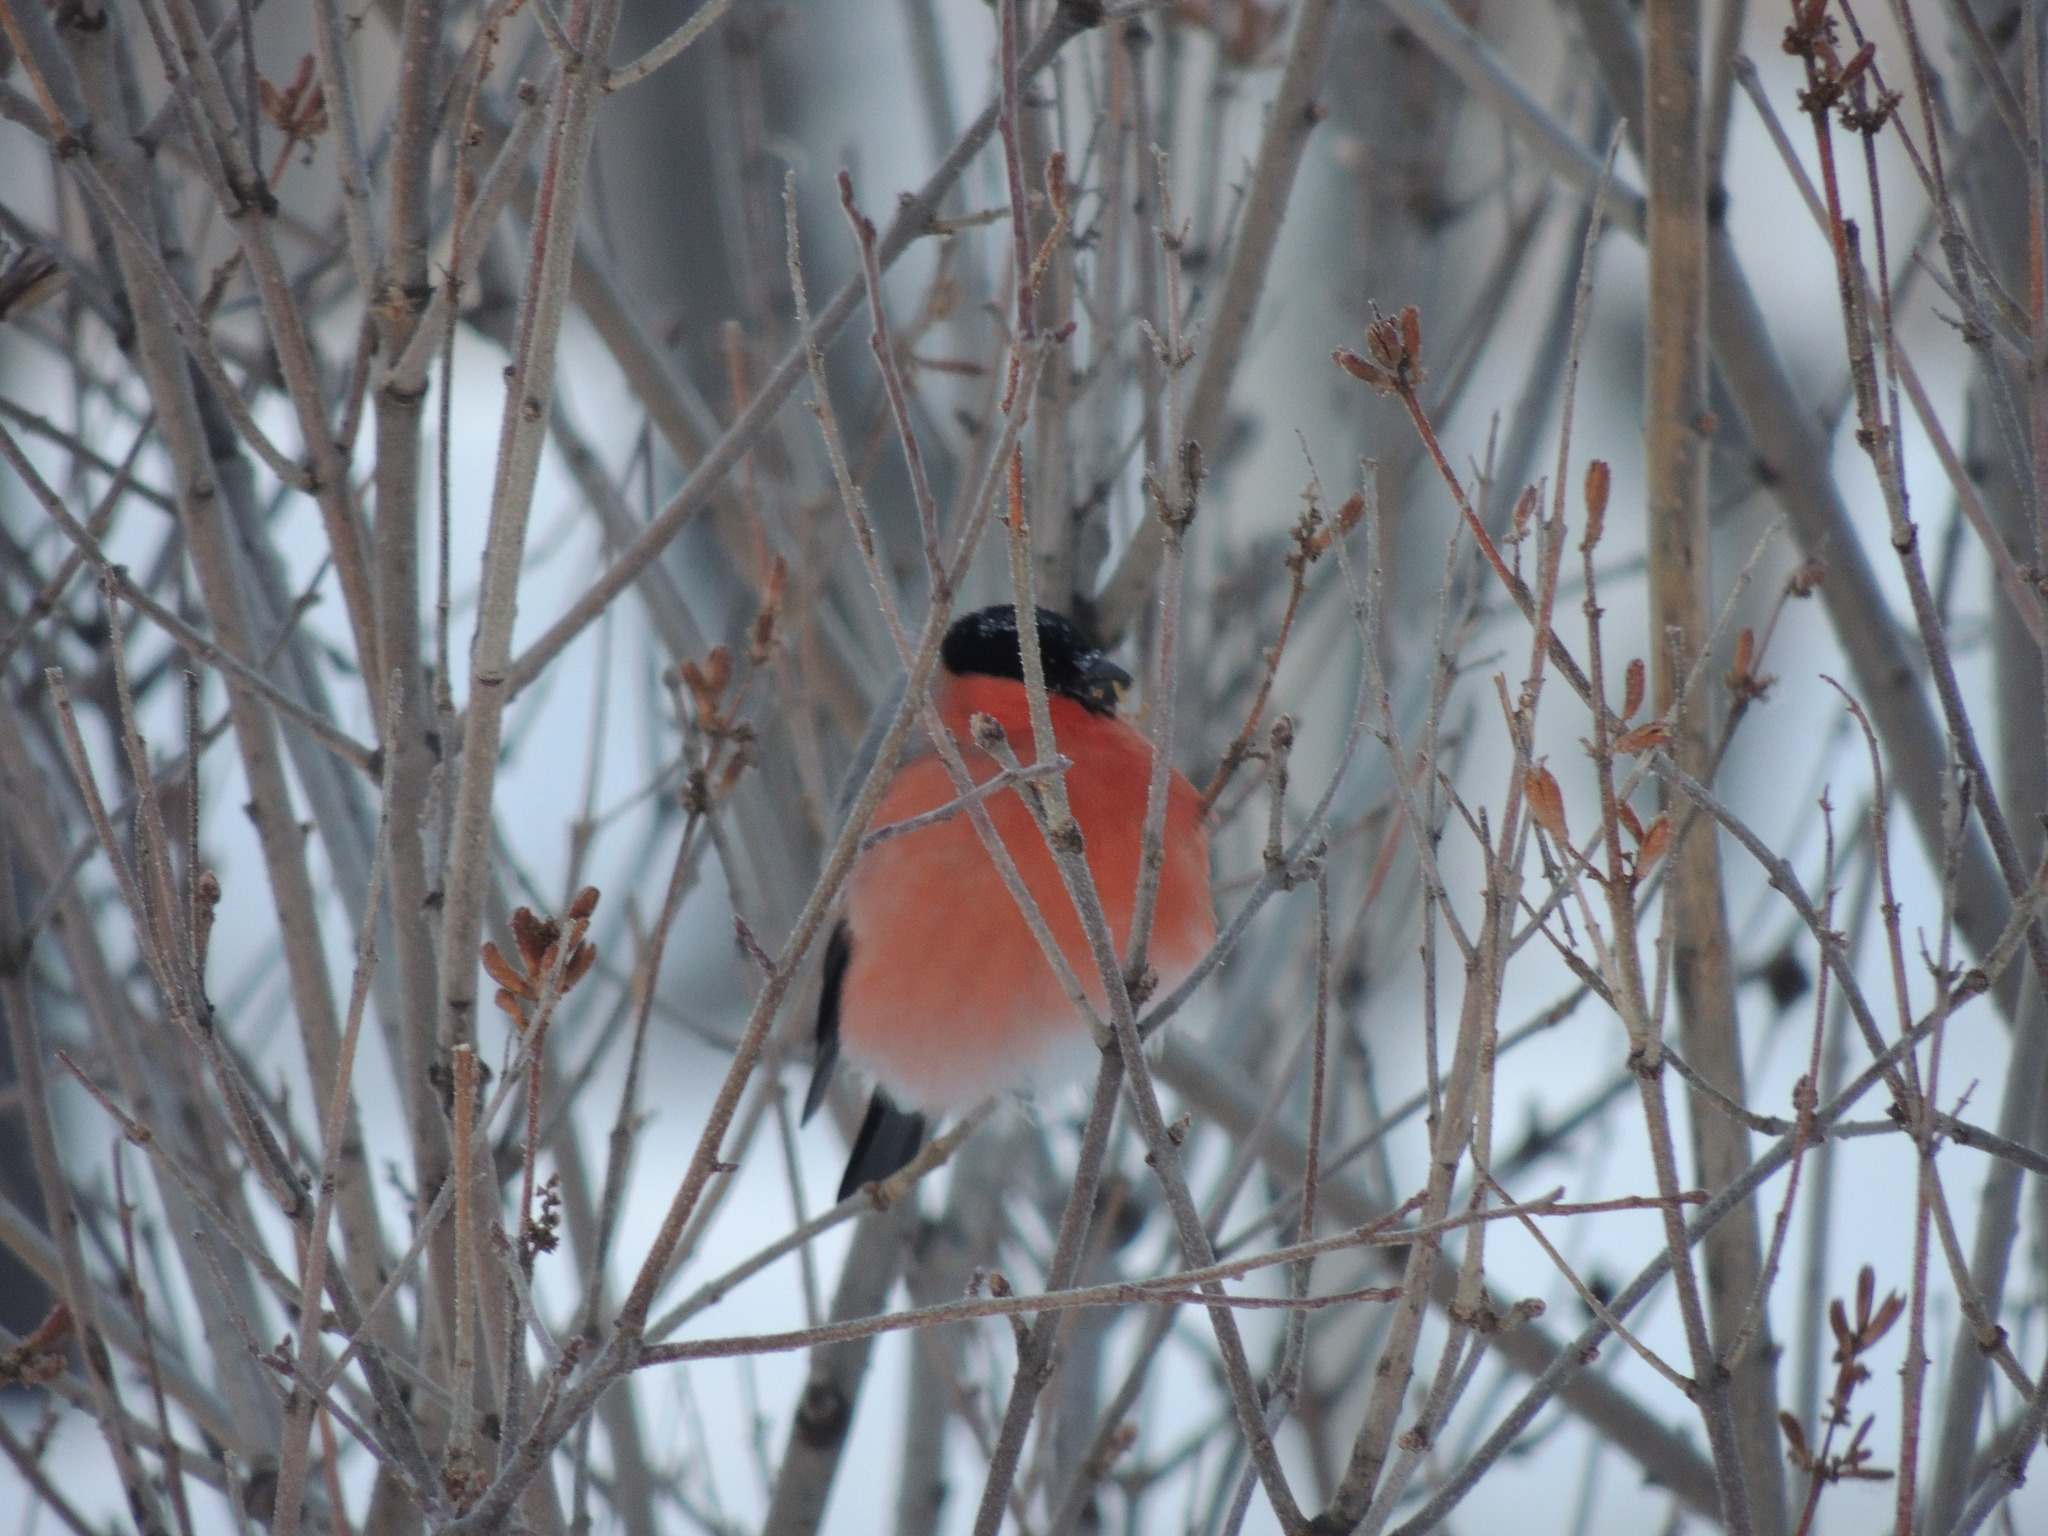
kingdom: Animalia
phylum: Chordata
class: Aves
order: Passeriformes
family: Fringillidae
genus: Pyrrhula
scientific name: Pyrrhula pyrrhula
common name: Eurasian bullfinch
